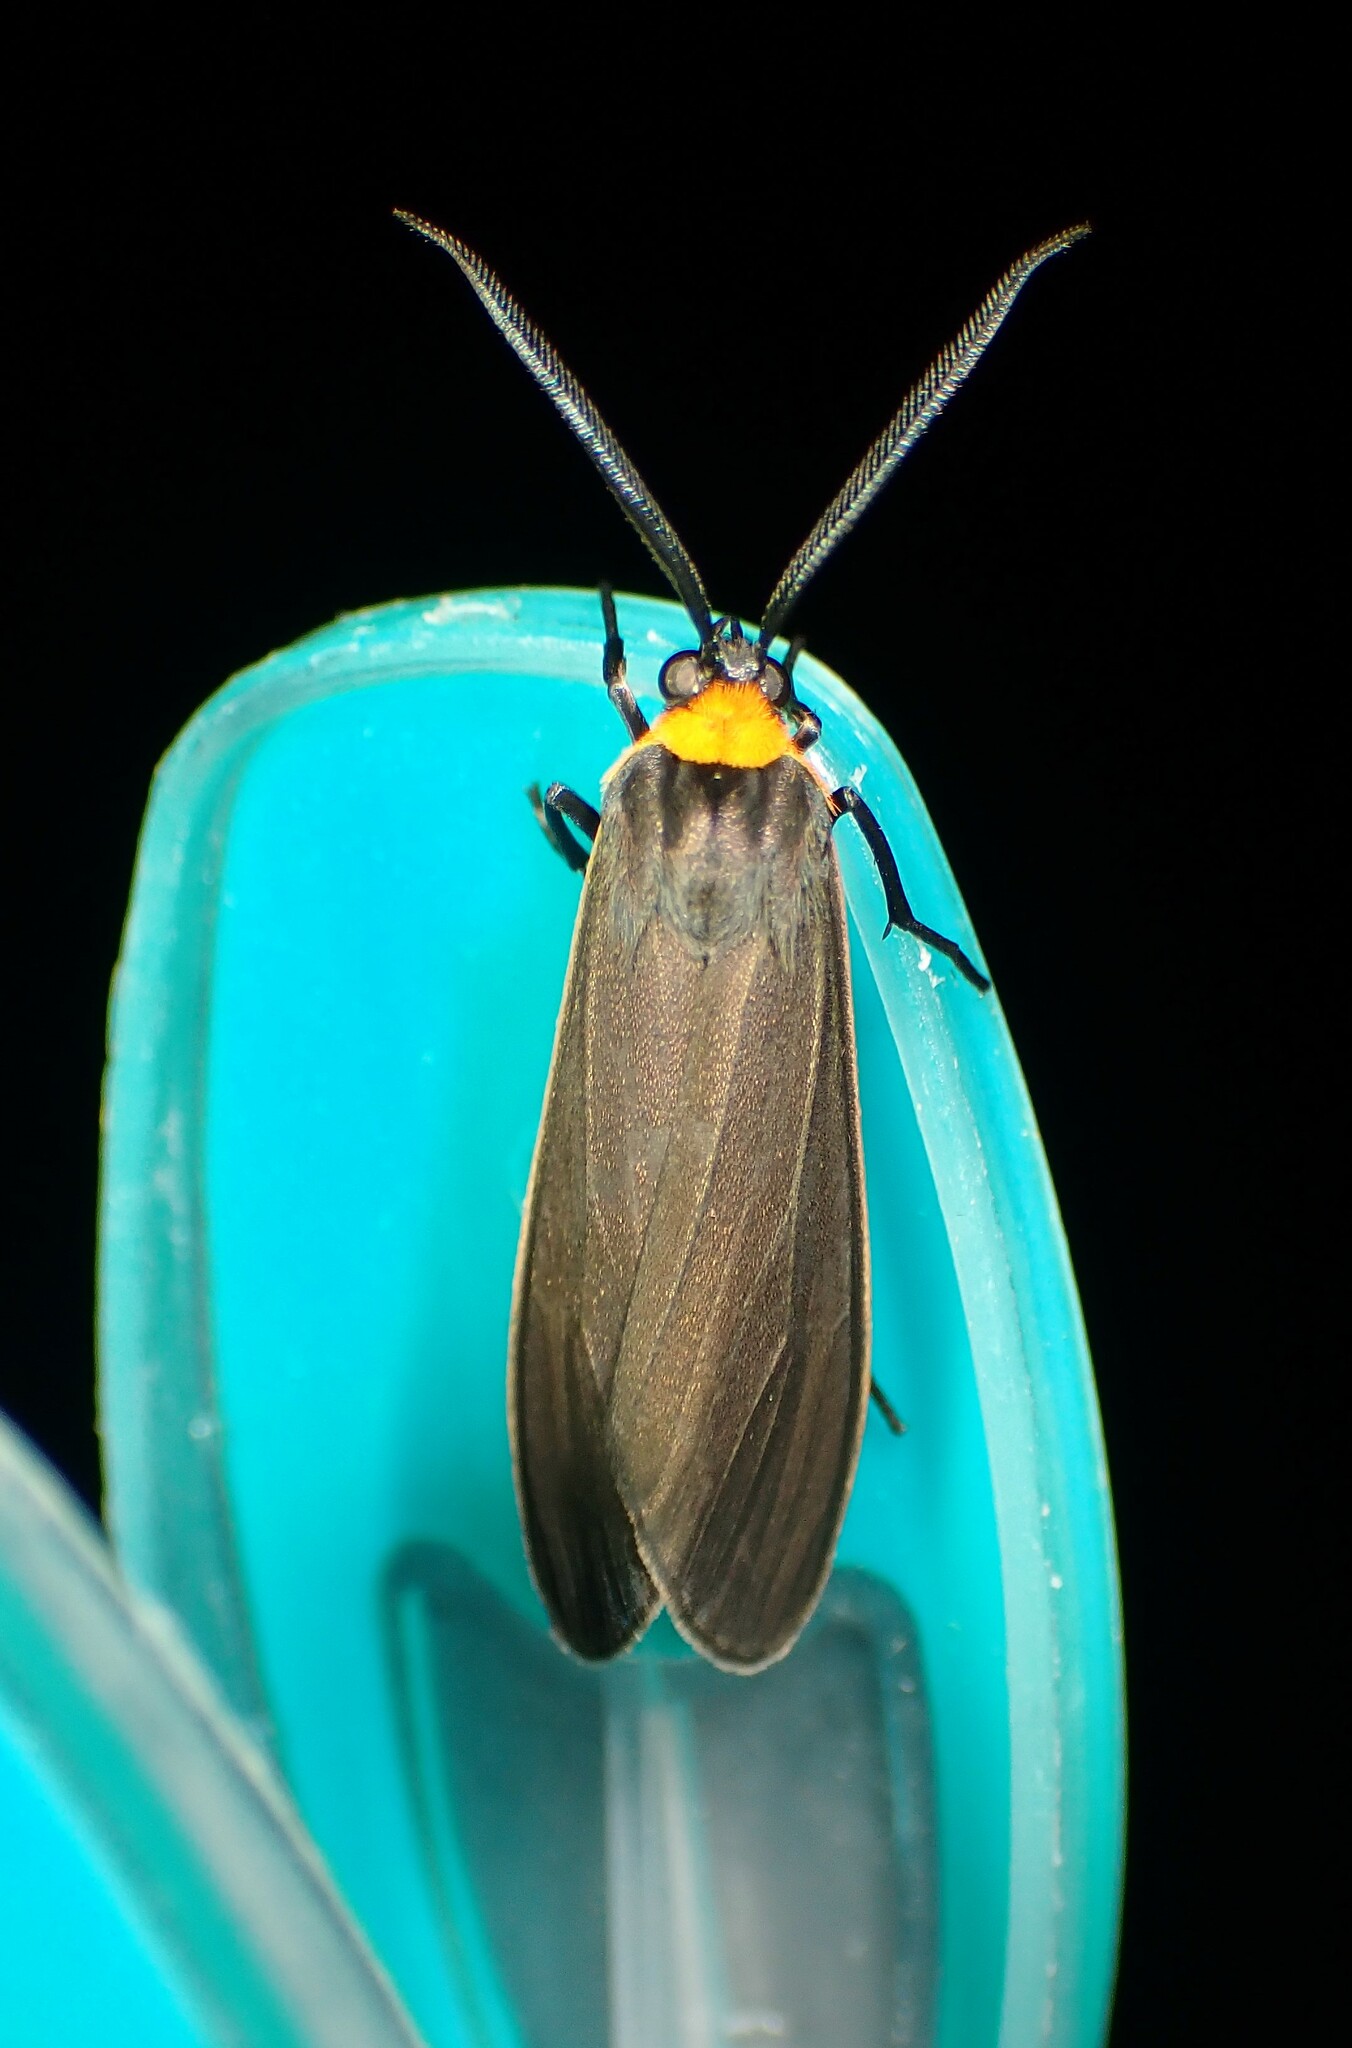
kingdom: Animalia
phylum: Arthropoda
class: Insecta
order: Lepidoptera
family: Erebidae
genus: Cisseps
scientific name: Cisseps fulvicollis
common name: Yellow-collared scape moth
